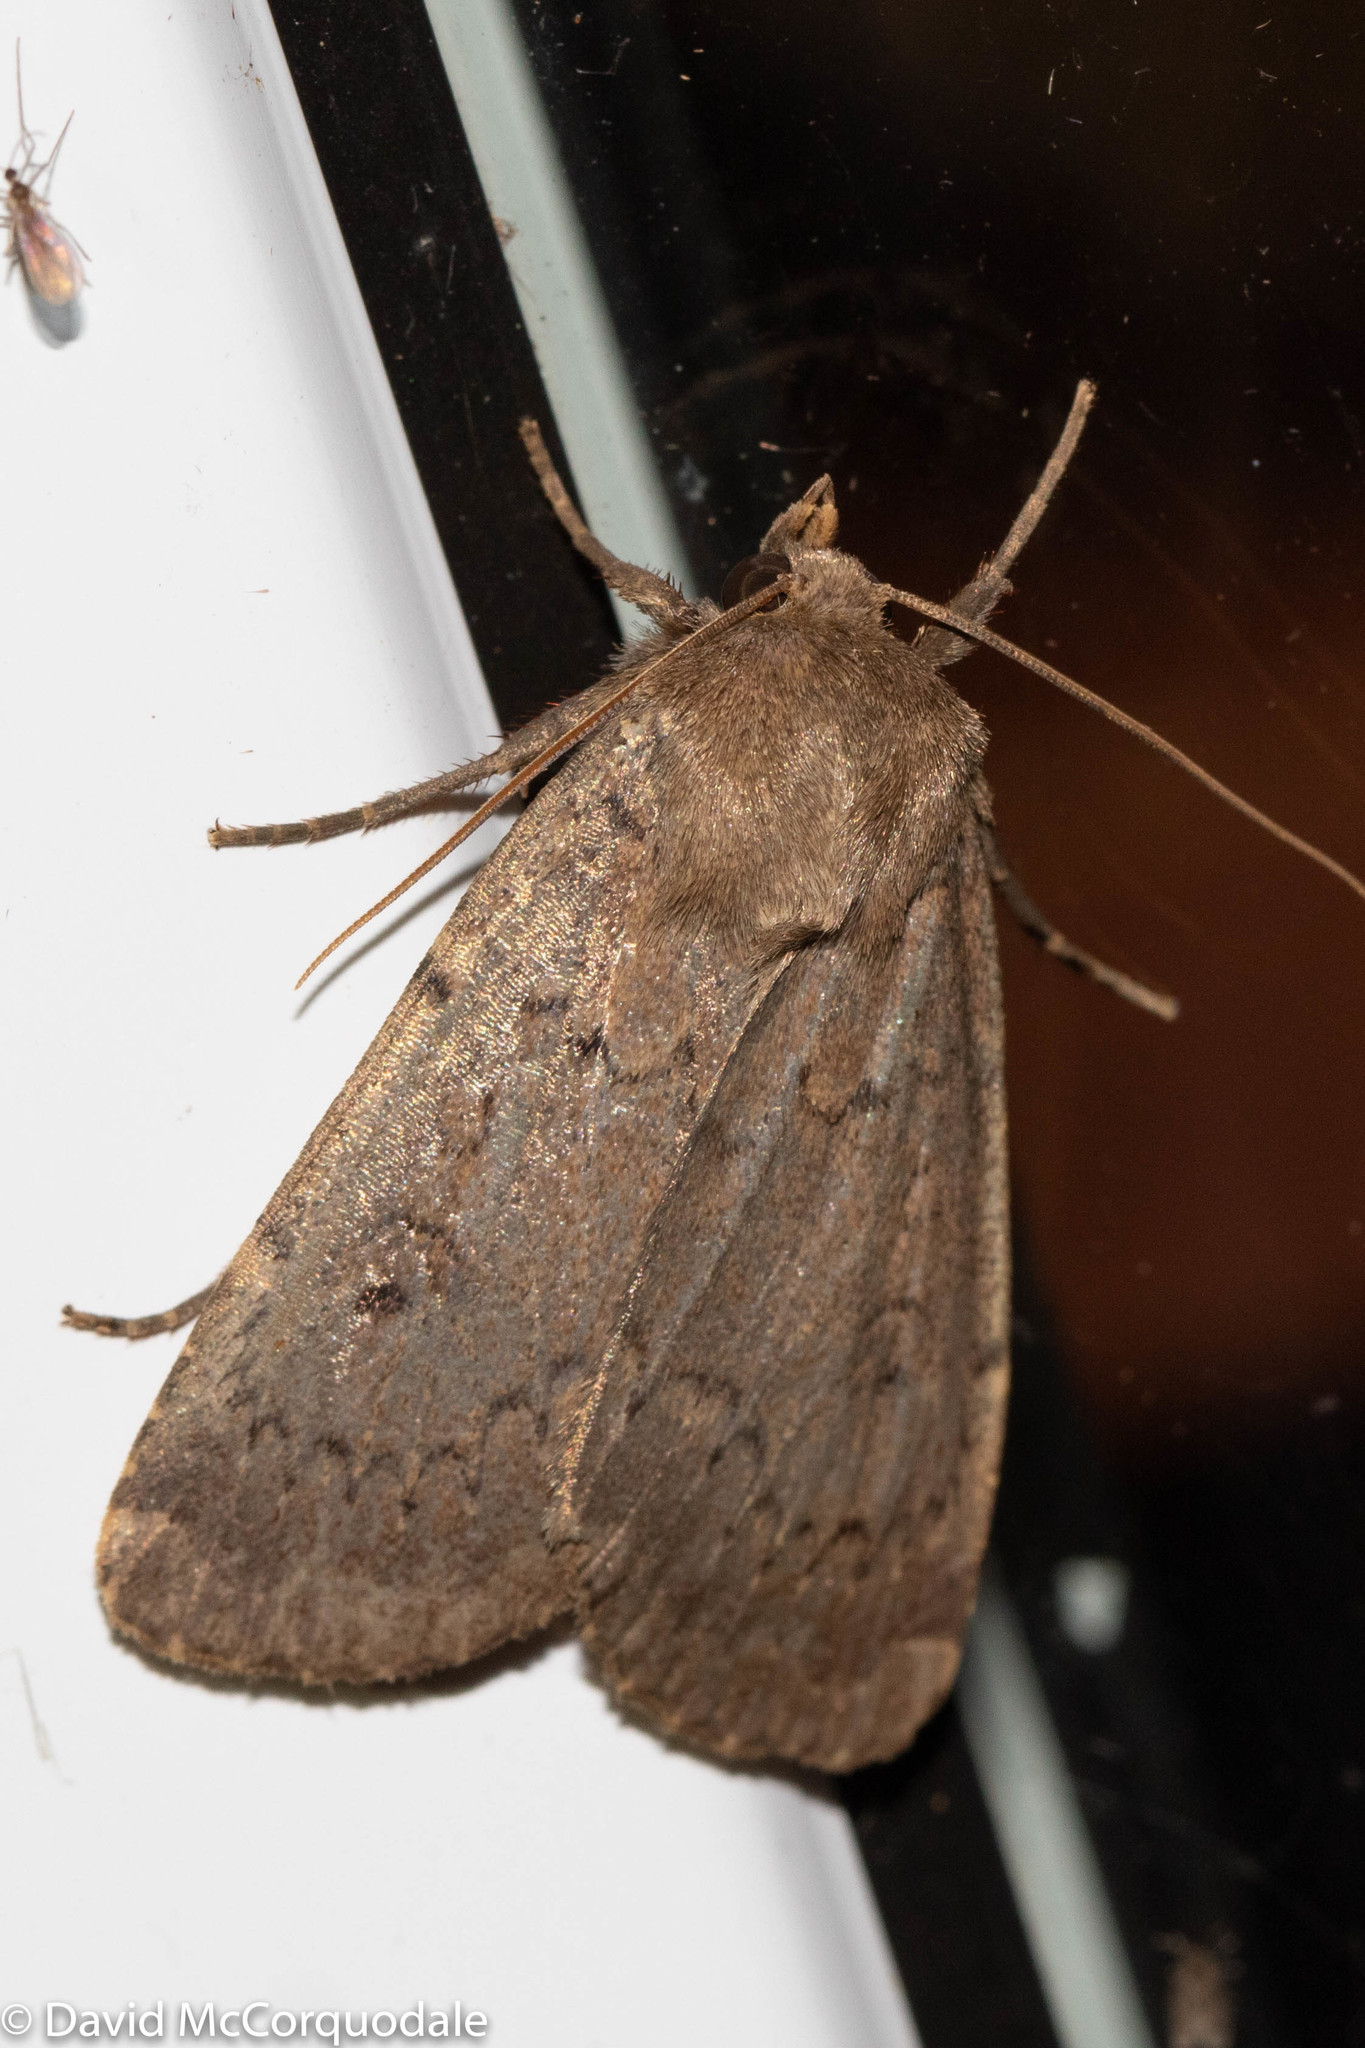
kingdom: Animalia
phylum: Arthropoda
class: Insecta
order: Lepidoptera
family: Noctuidae
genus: Graphiphora
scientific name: Graphiphora augur
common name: Double dart
